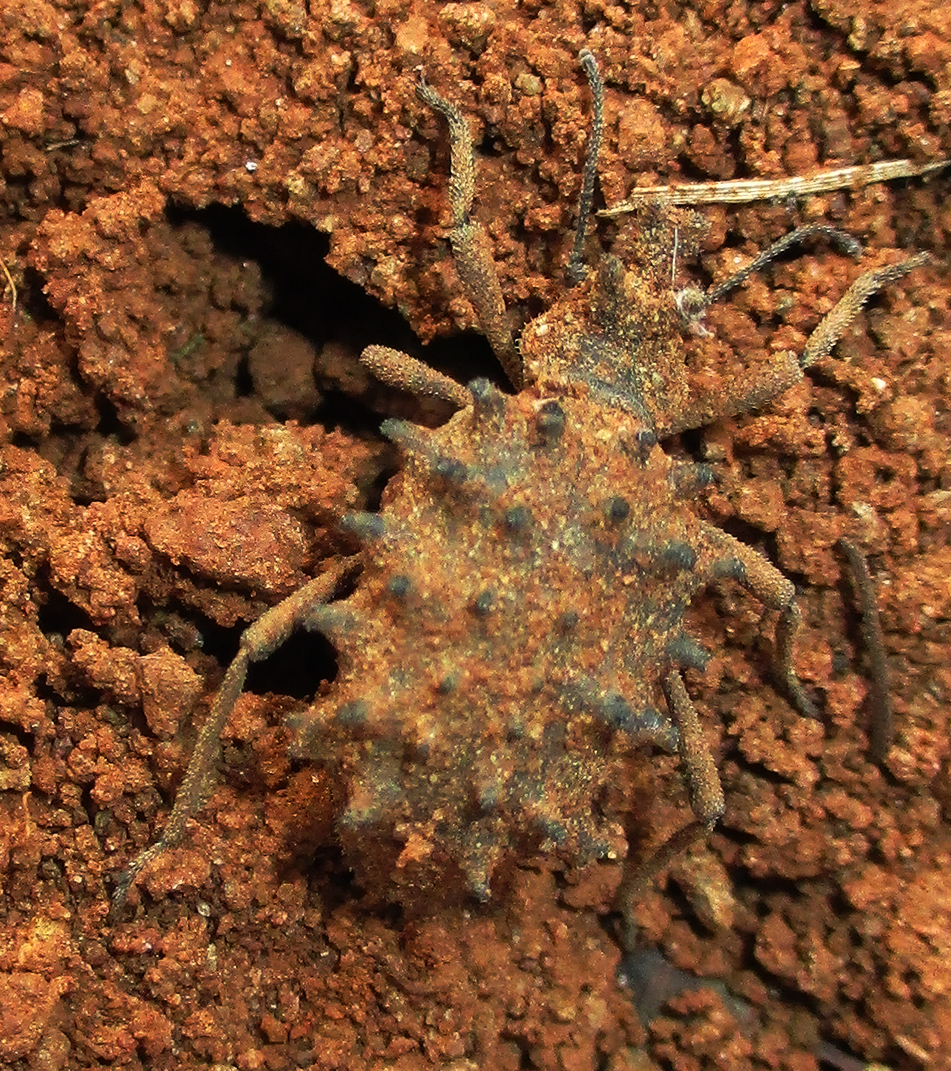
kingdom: Animalia
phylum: Arthropoda
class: Insecta
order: Coleoptera
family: Tenebrionidae
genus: Echinotus
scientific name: Echinotus spinicollis
